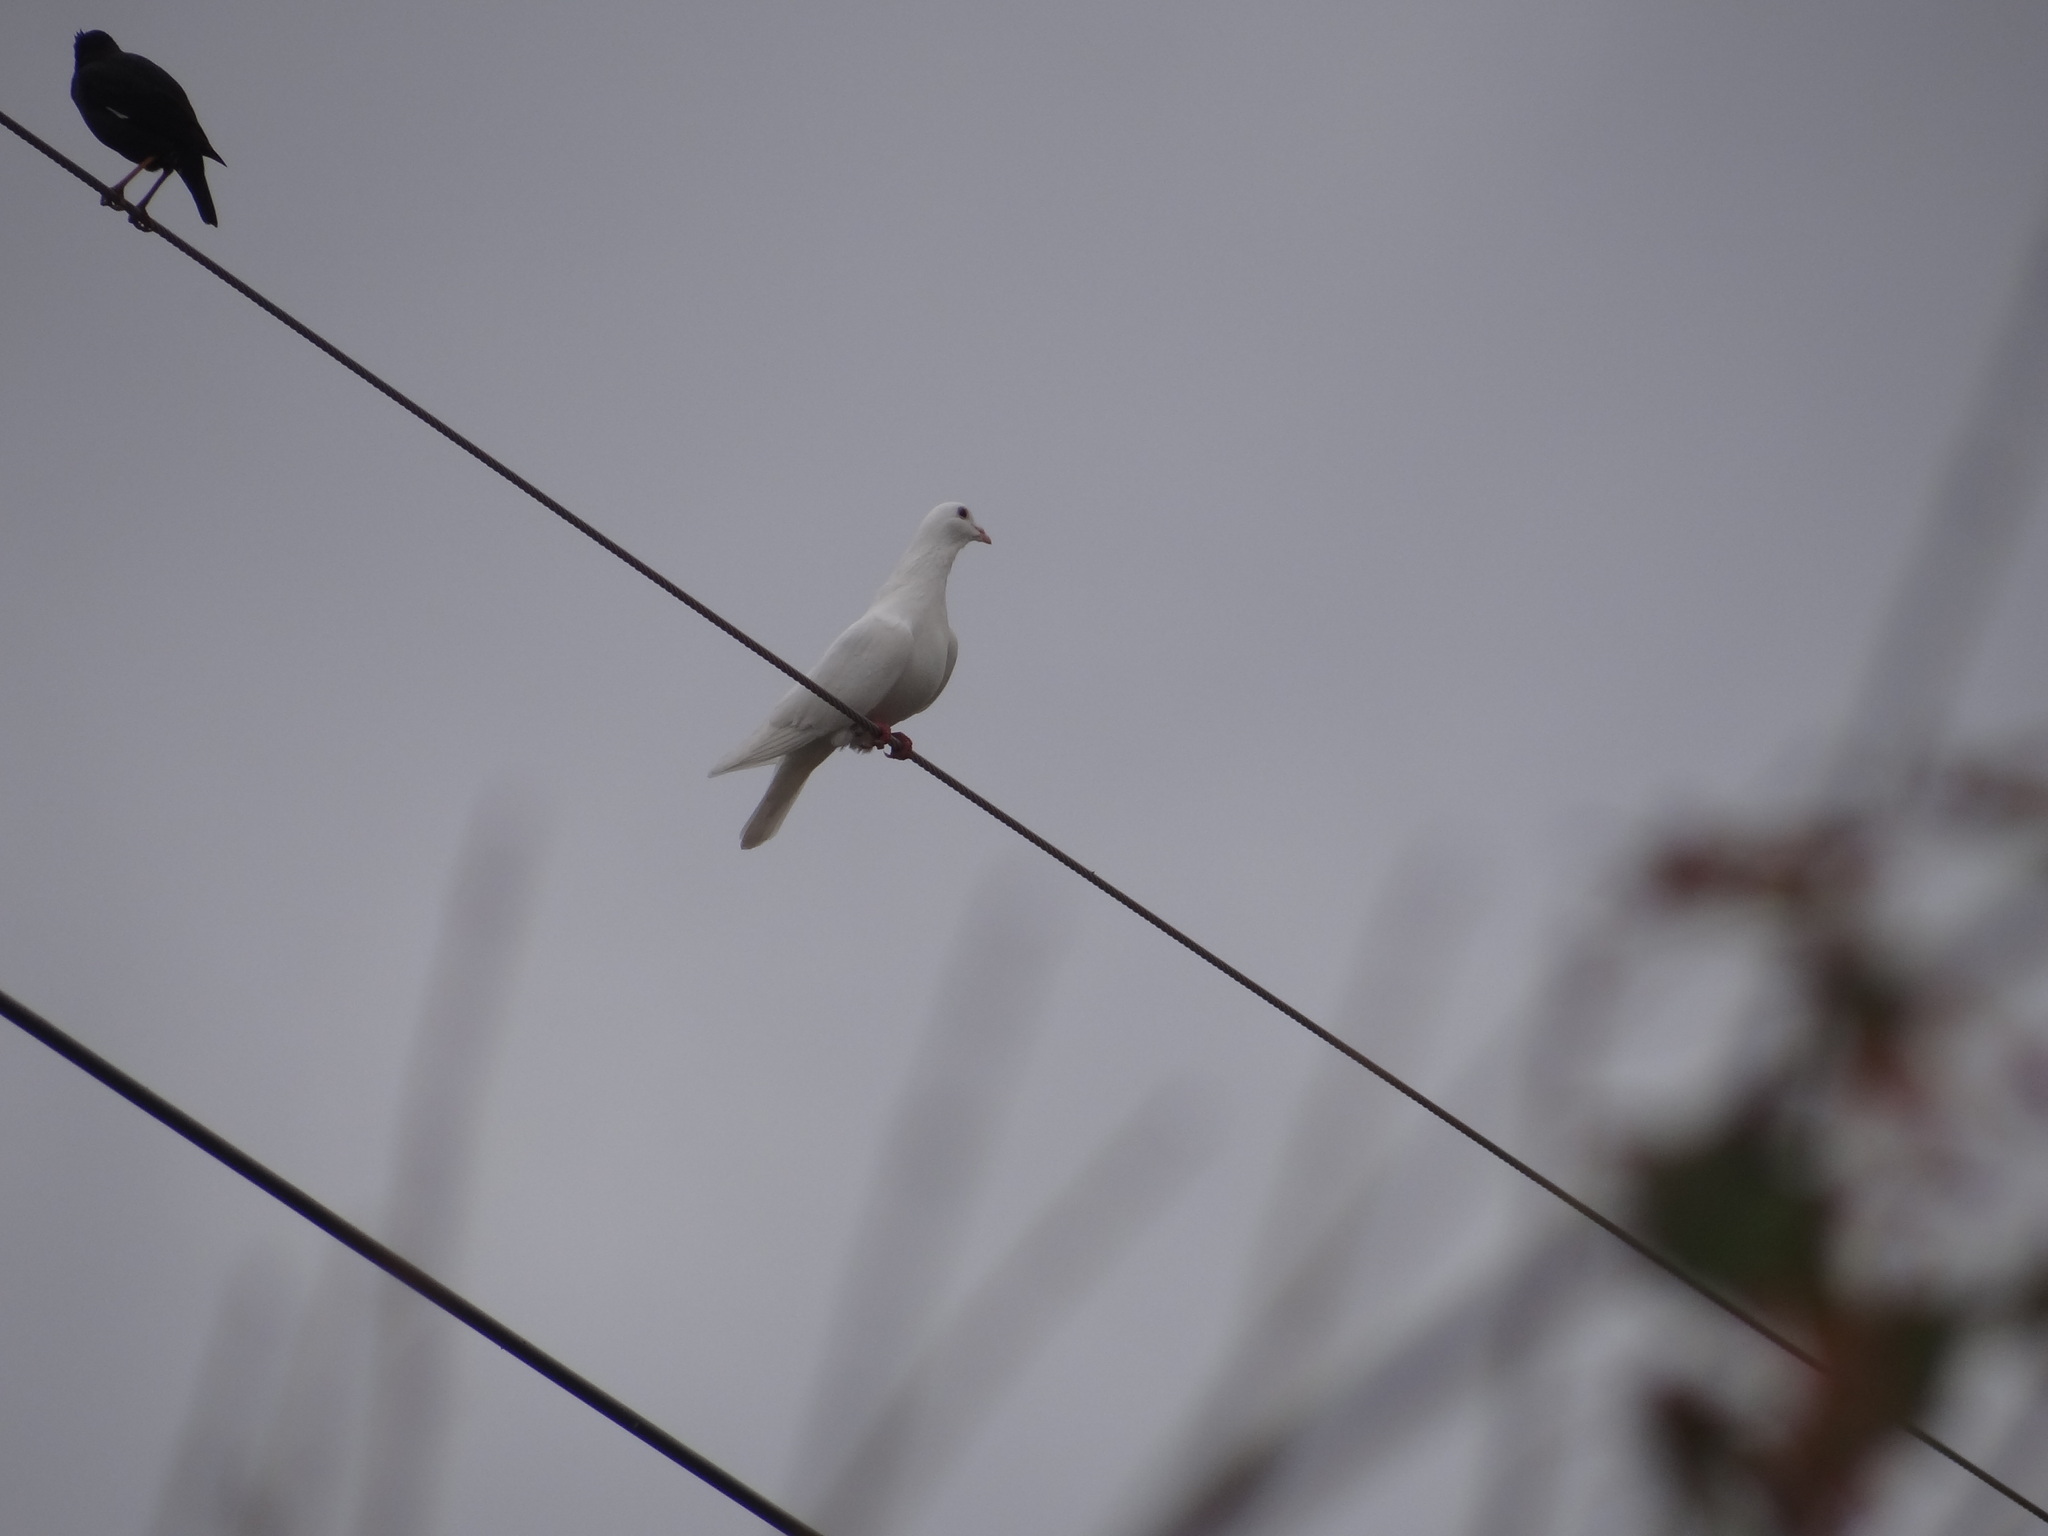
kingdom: Animalia
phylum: Chordata
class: Aves
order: Columbiformes
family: Columbidae
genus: Columba
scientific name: Columba livia
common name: Rock pigeon
